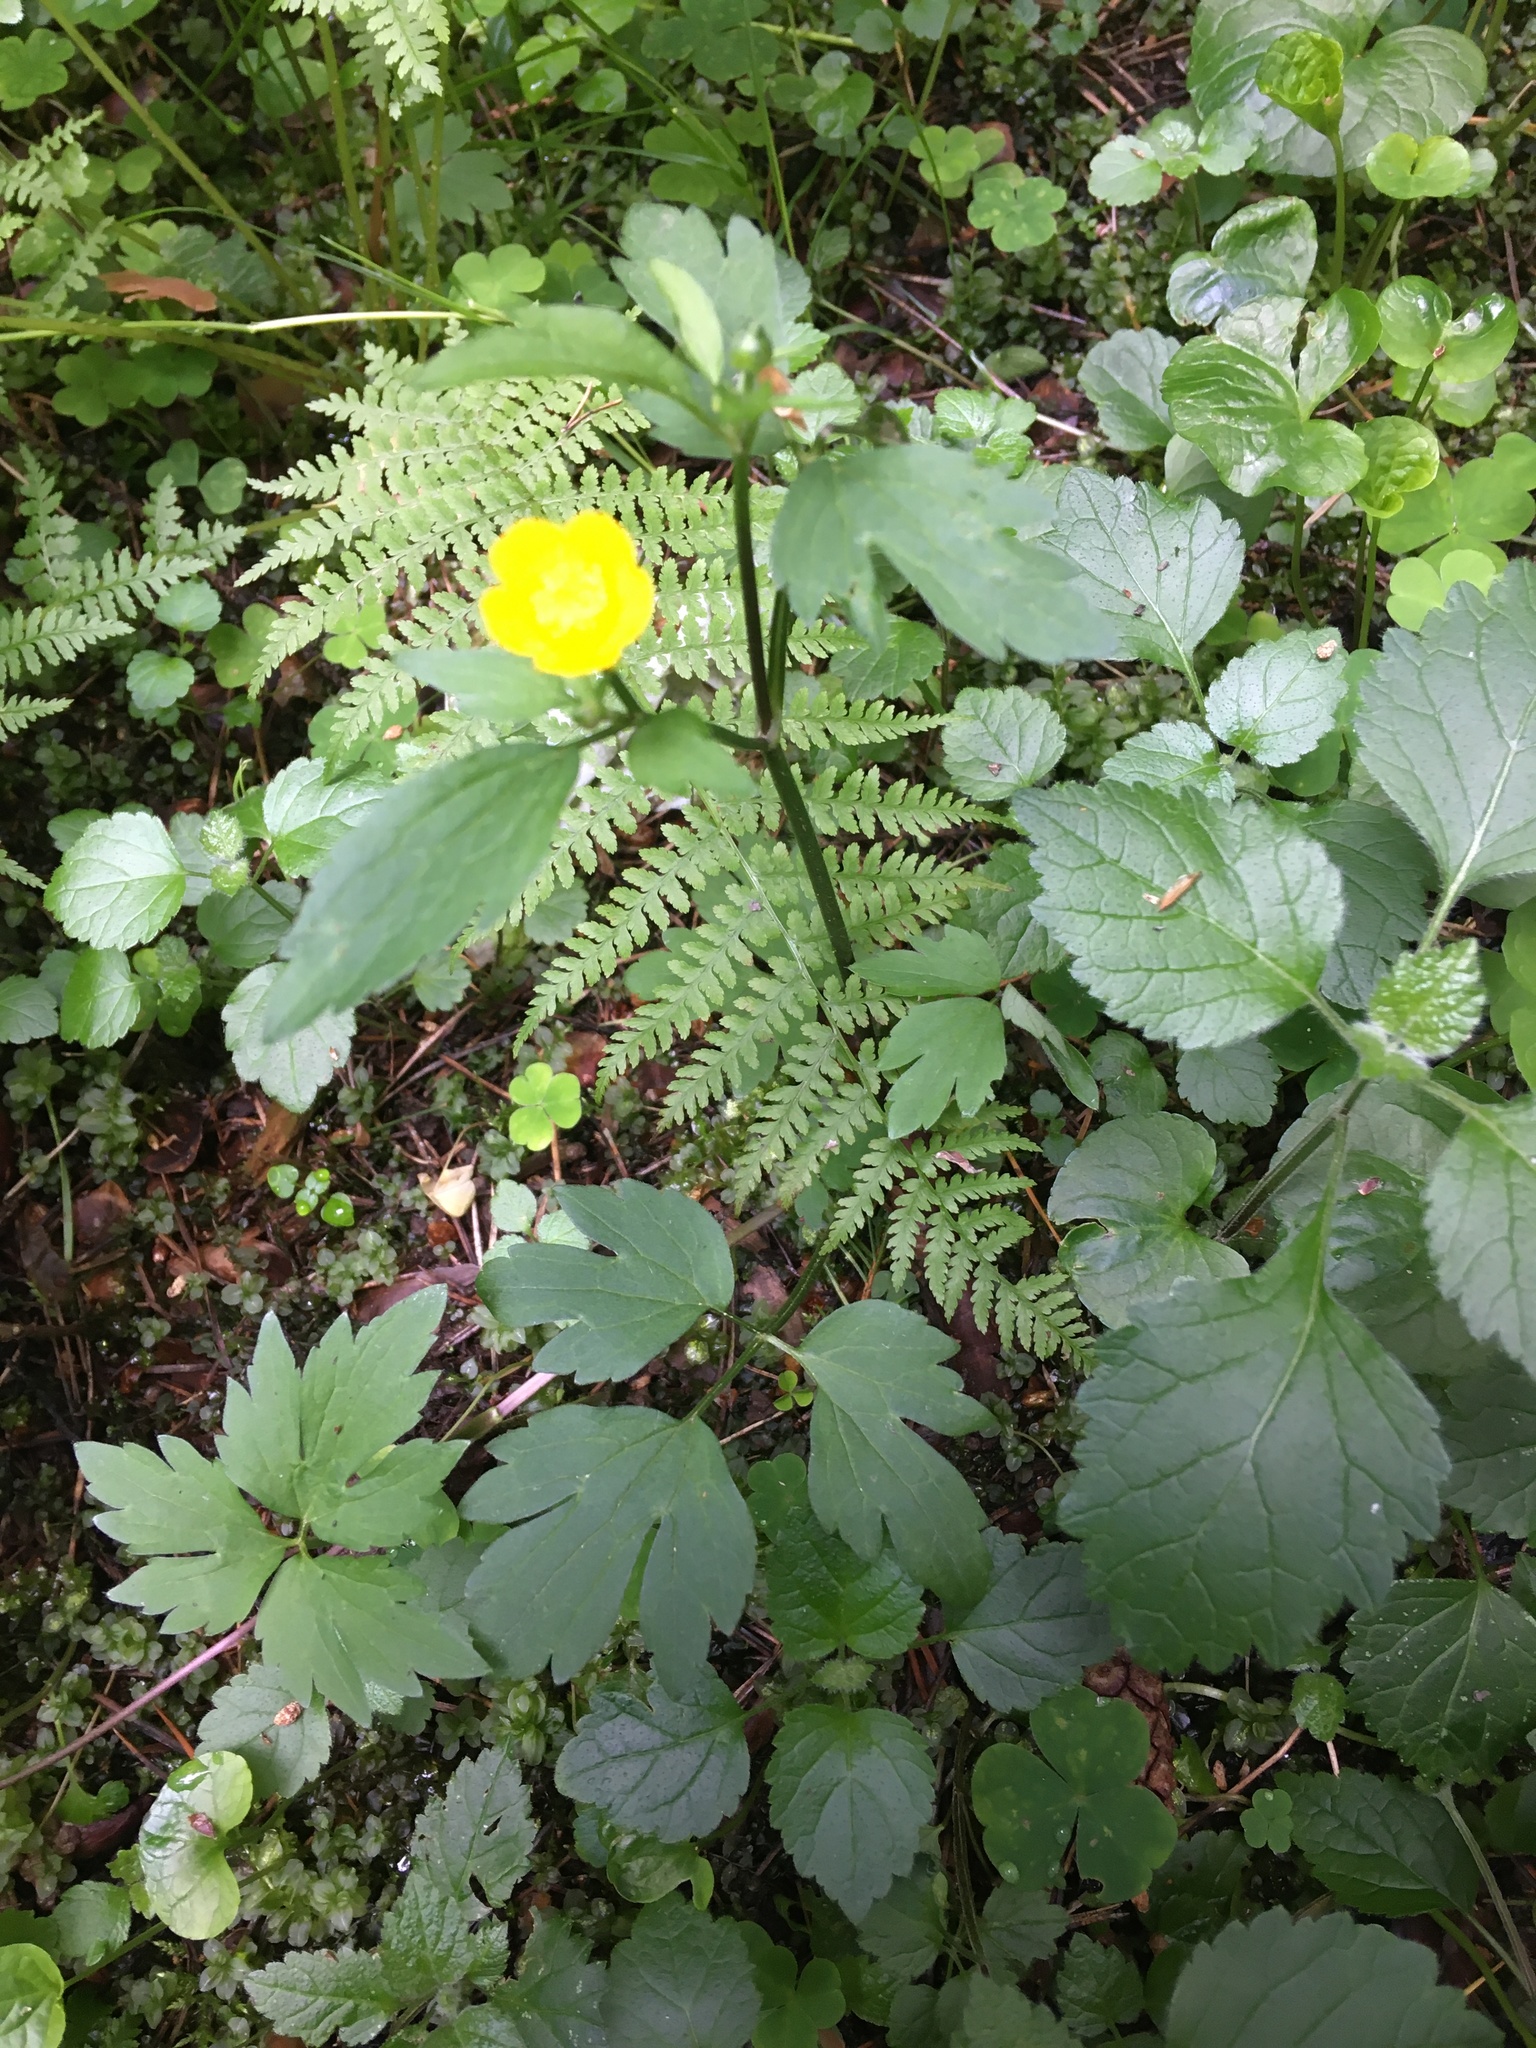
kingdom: Plantae
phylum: Tracheophyta
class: Magnoliopsida
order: Ranunculales
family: Ranunculaceae
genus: Ranunculus
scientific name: Ranunculus repens
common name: Creeping buttercup
